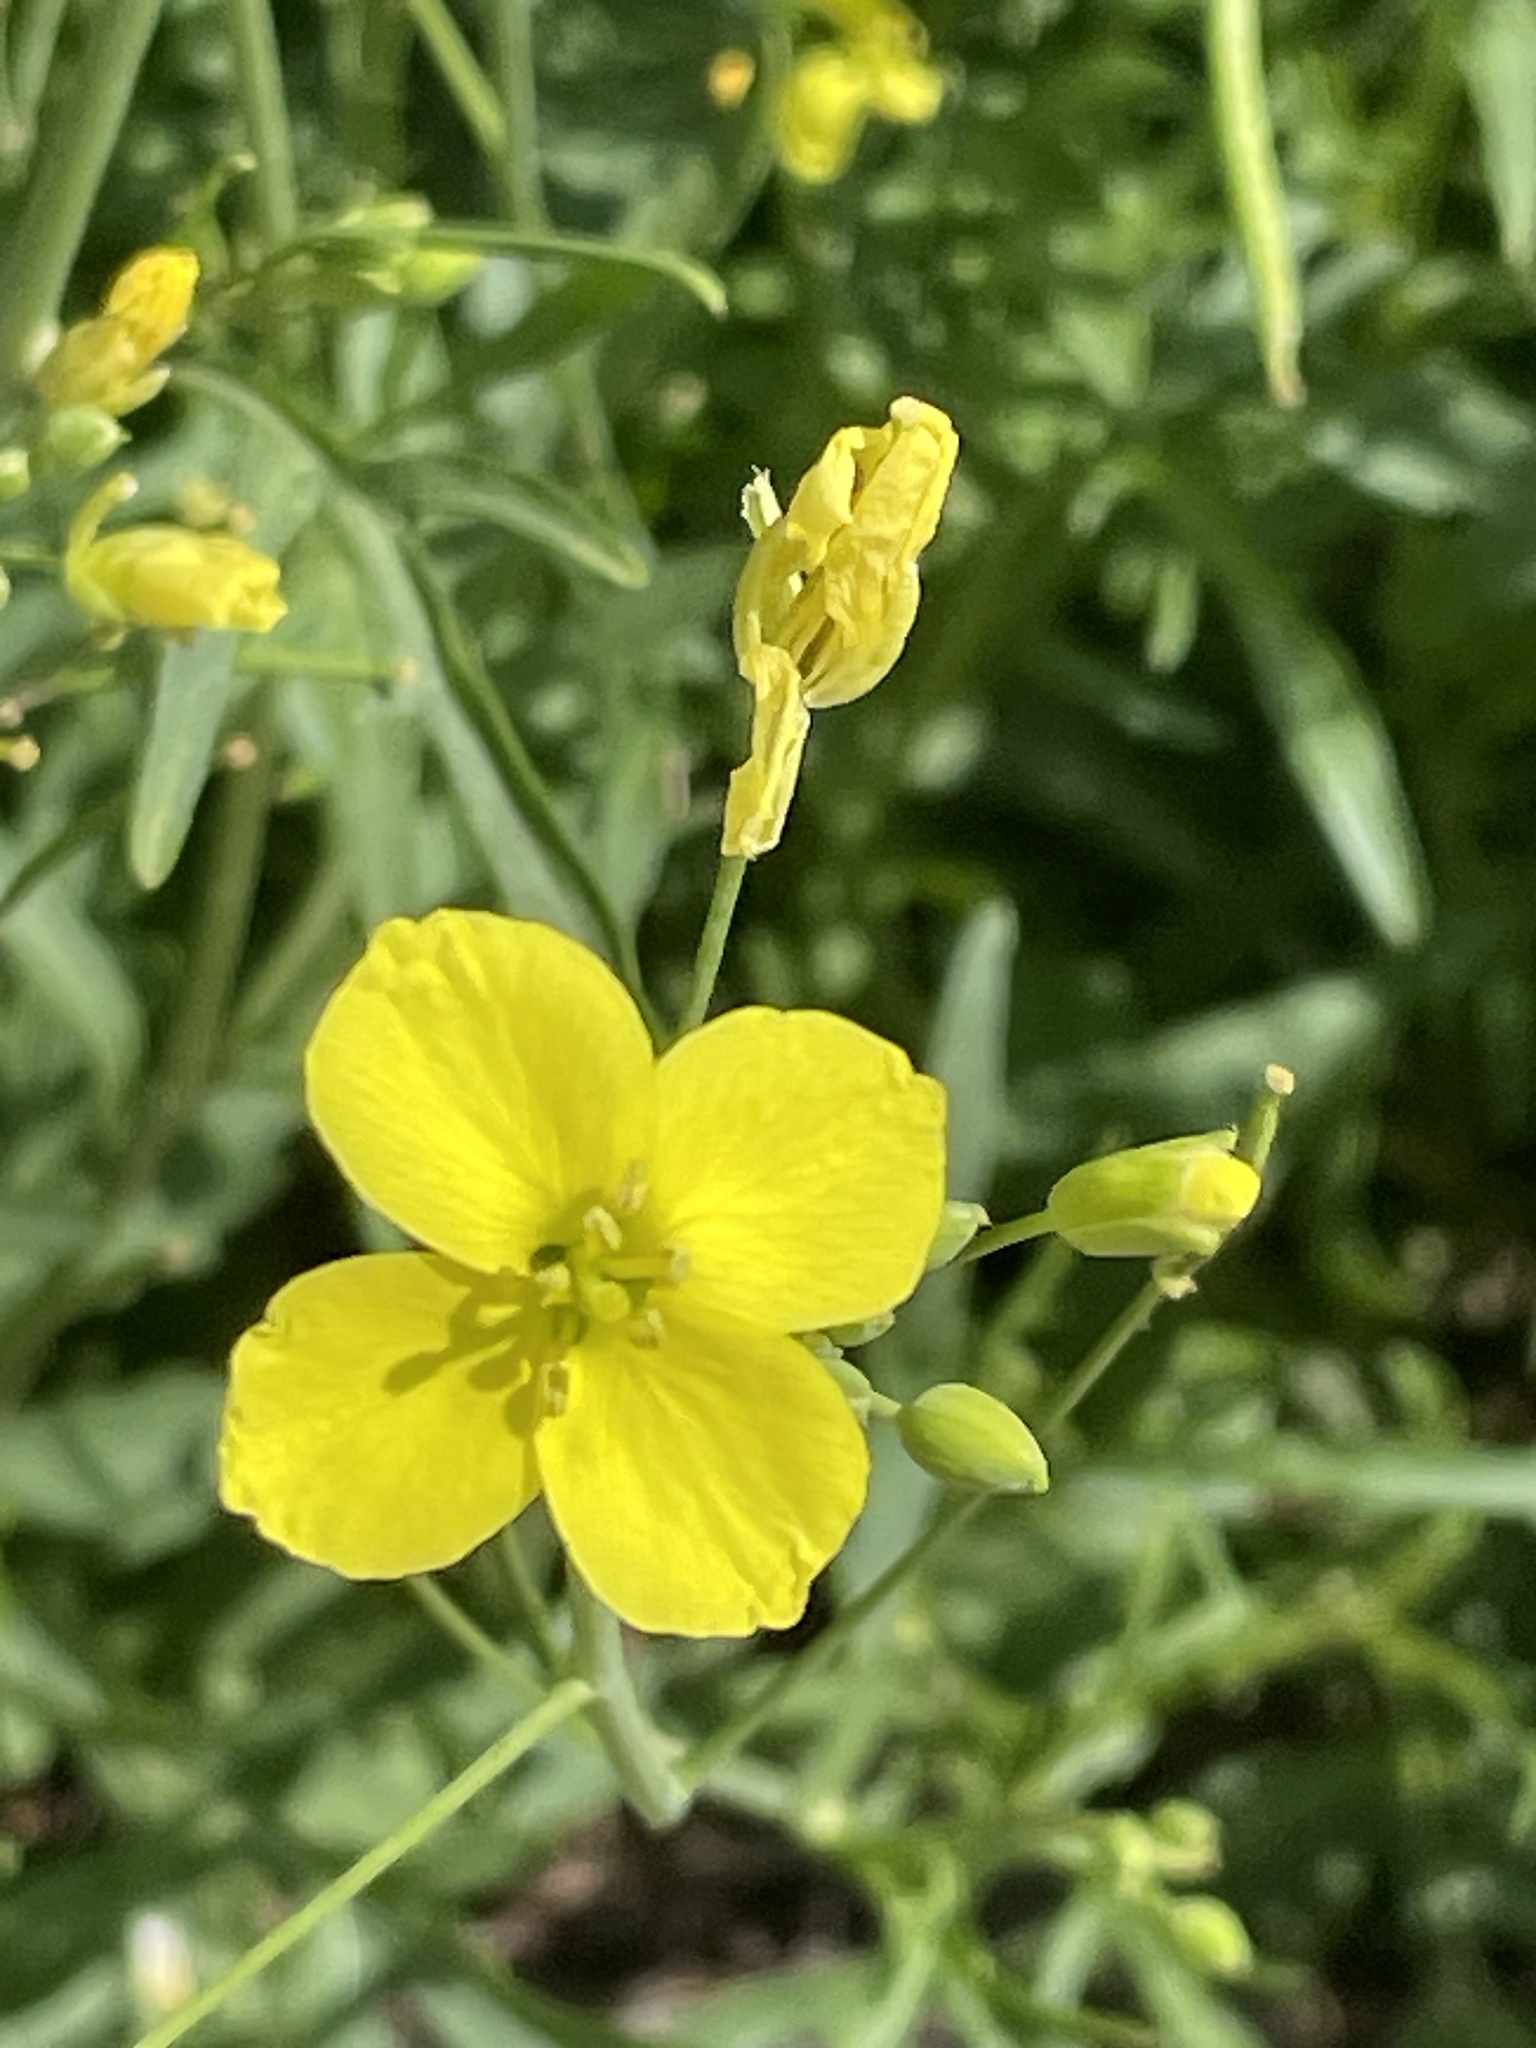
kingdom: Plantae
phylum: Tracheophyta
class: Magnoliopsida
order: Brassicales
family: Brassicaceae
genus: Diplotaxis
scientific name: Diplotaxis tenuifolia
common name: Perennial wall-rocket
